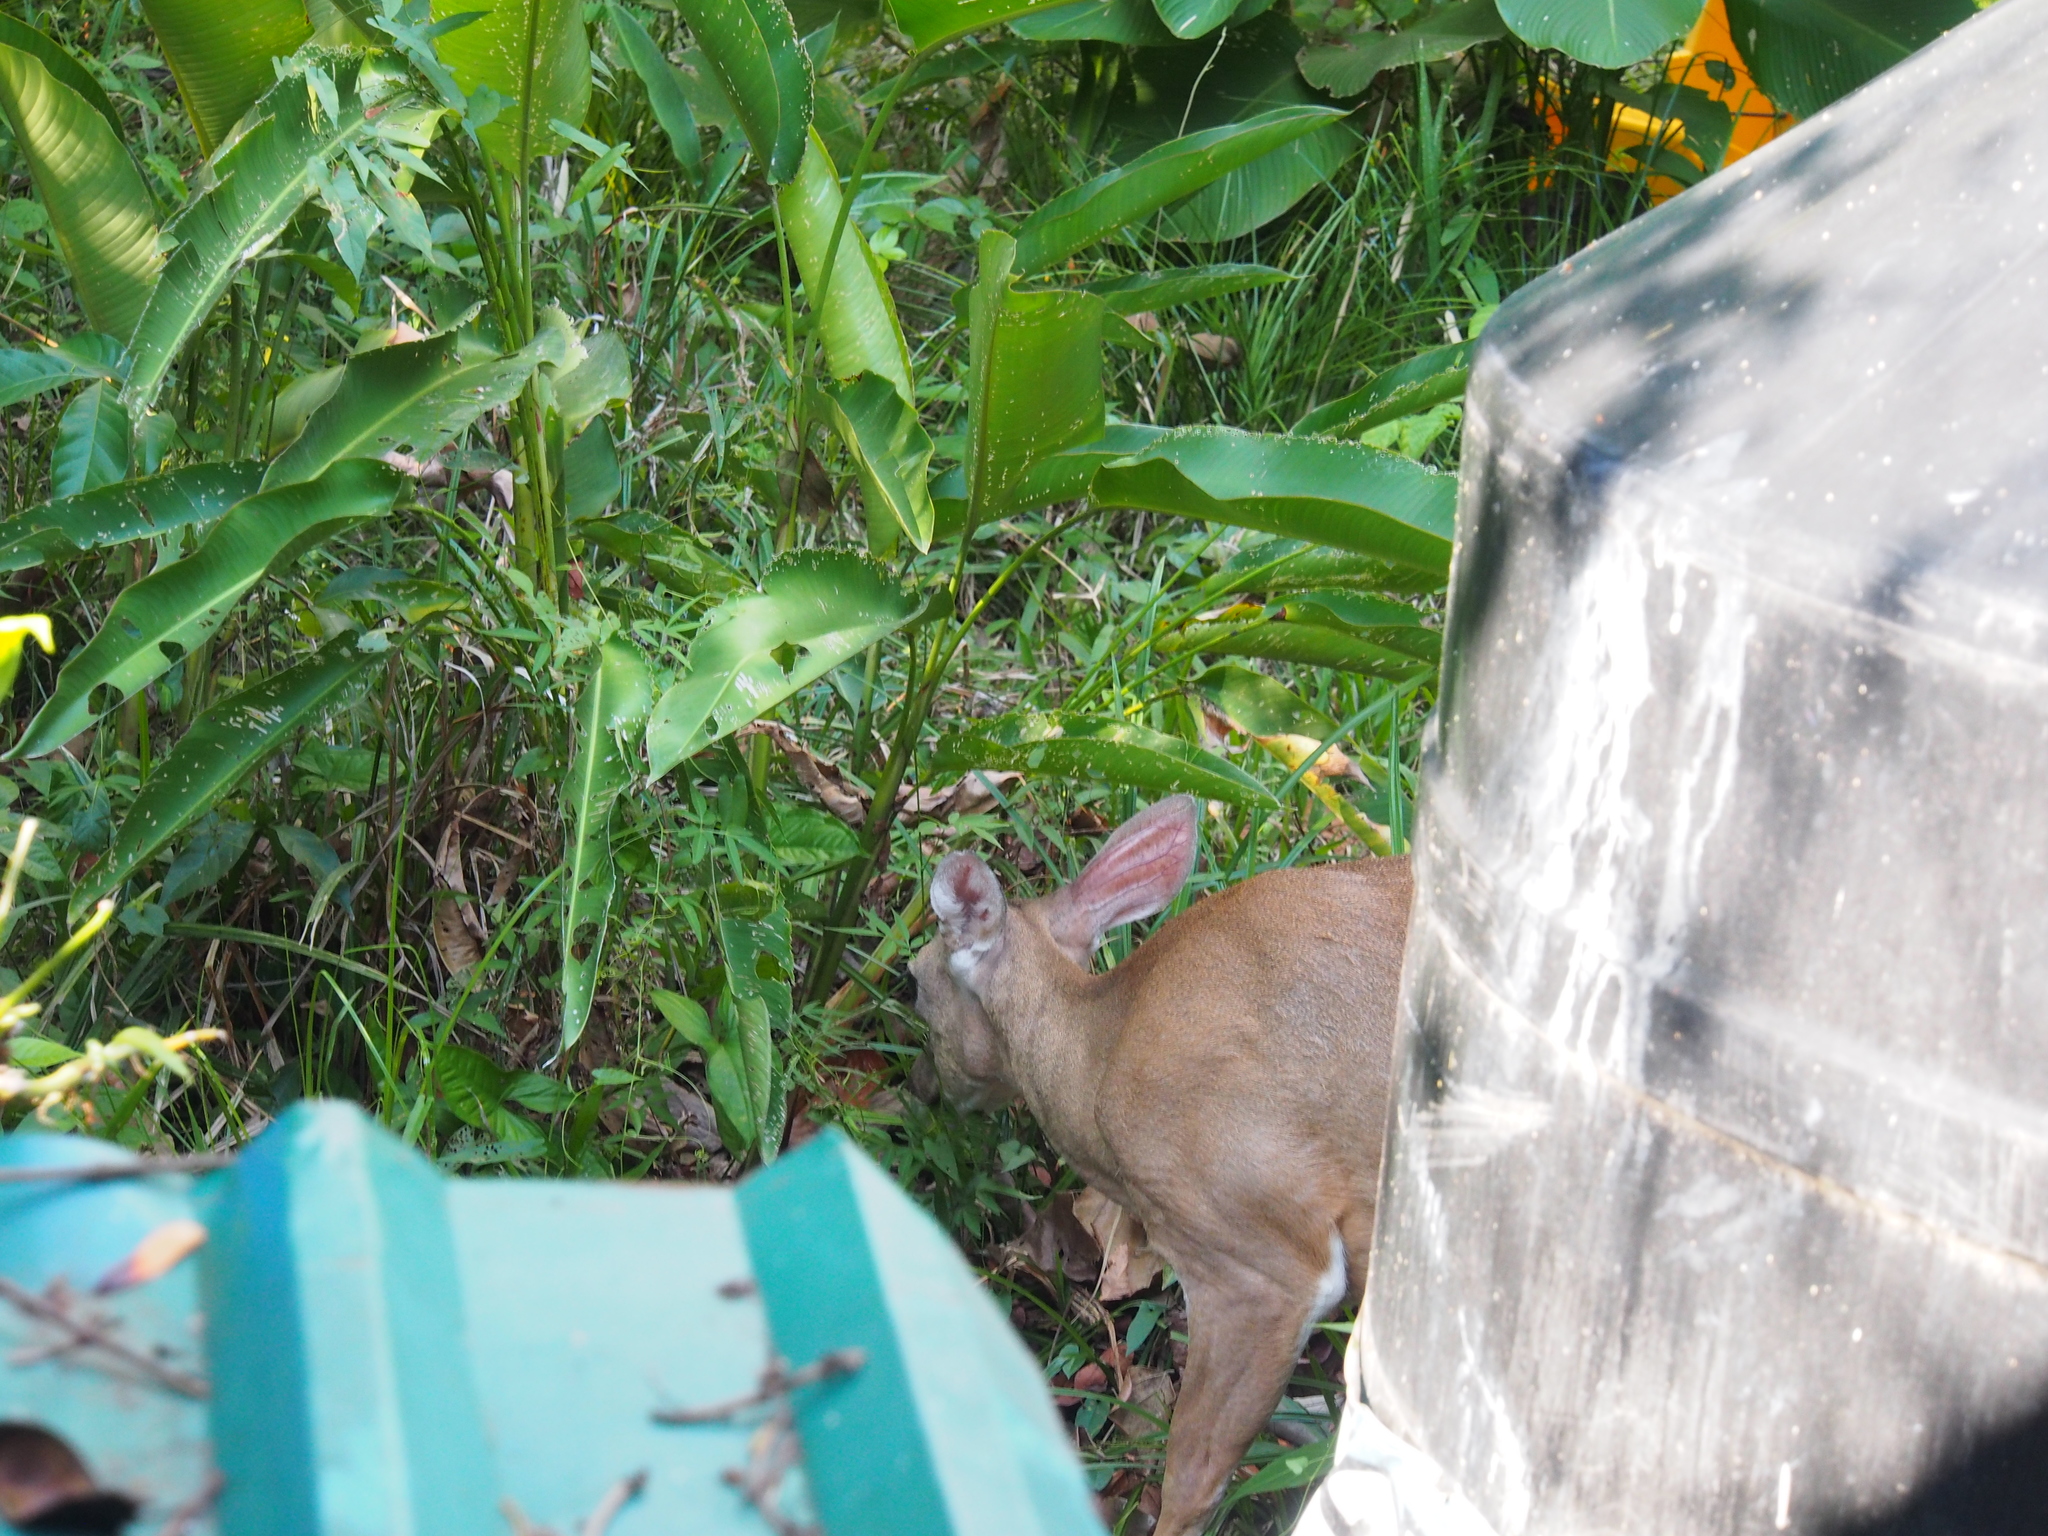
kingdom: Animalia
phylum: Chordata
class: Mammalia
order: Artiodactyla
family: Cervidae
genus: Odocoileus
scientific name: Odocoileus virginianus
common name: White-tailed deer
